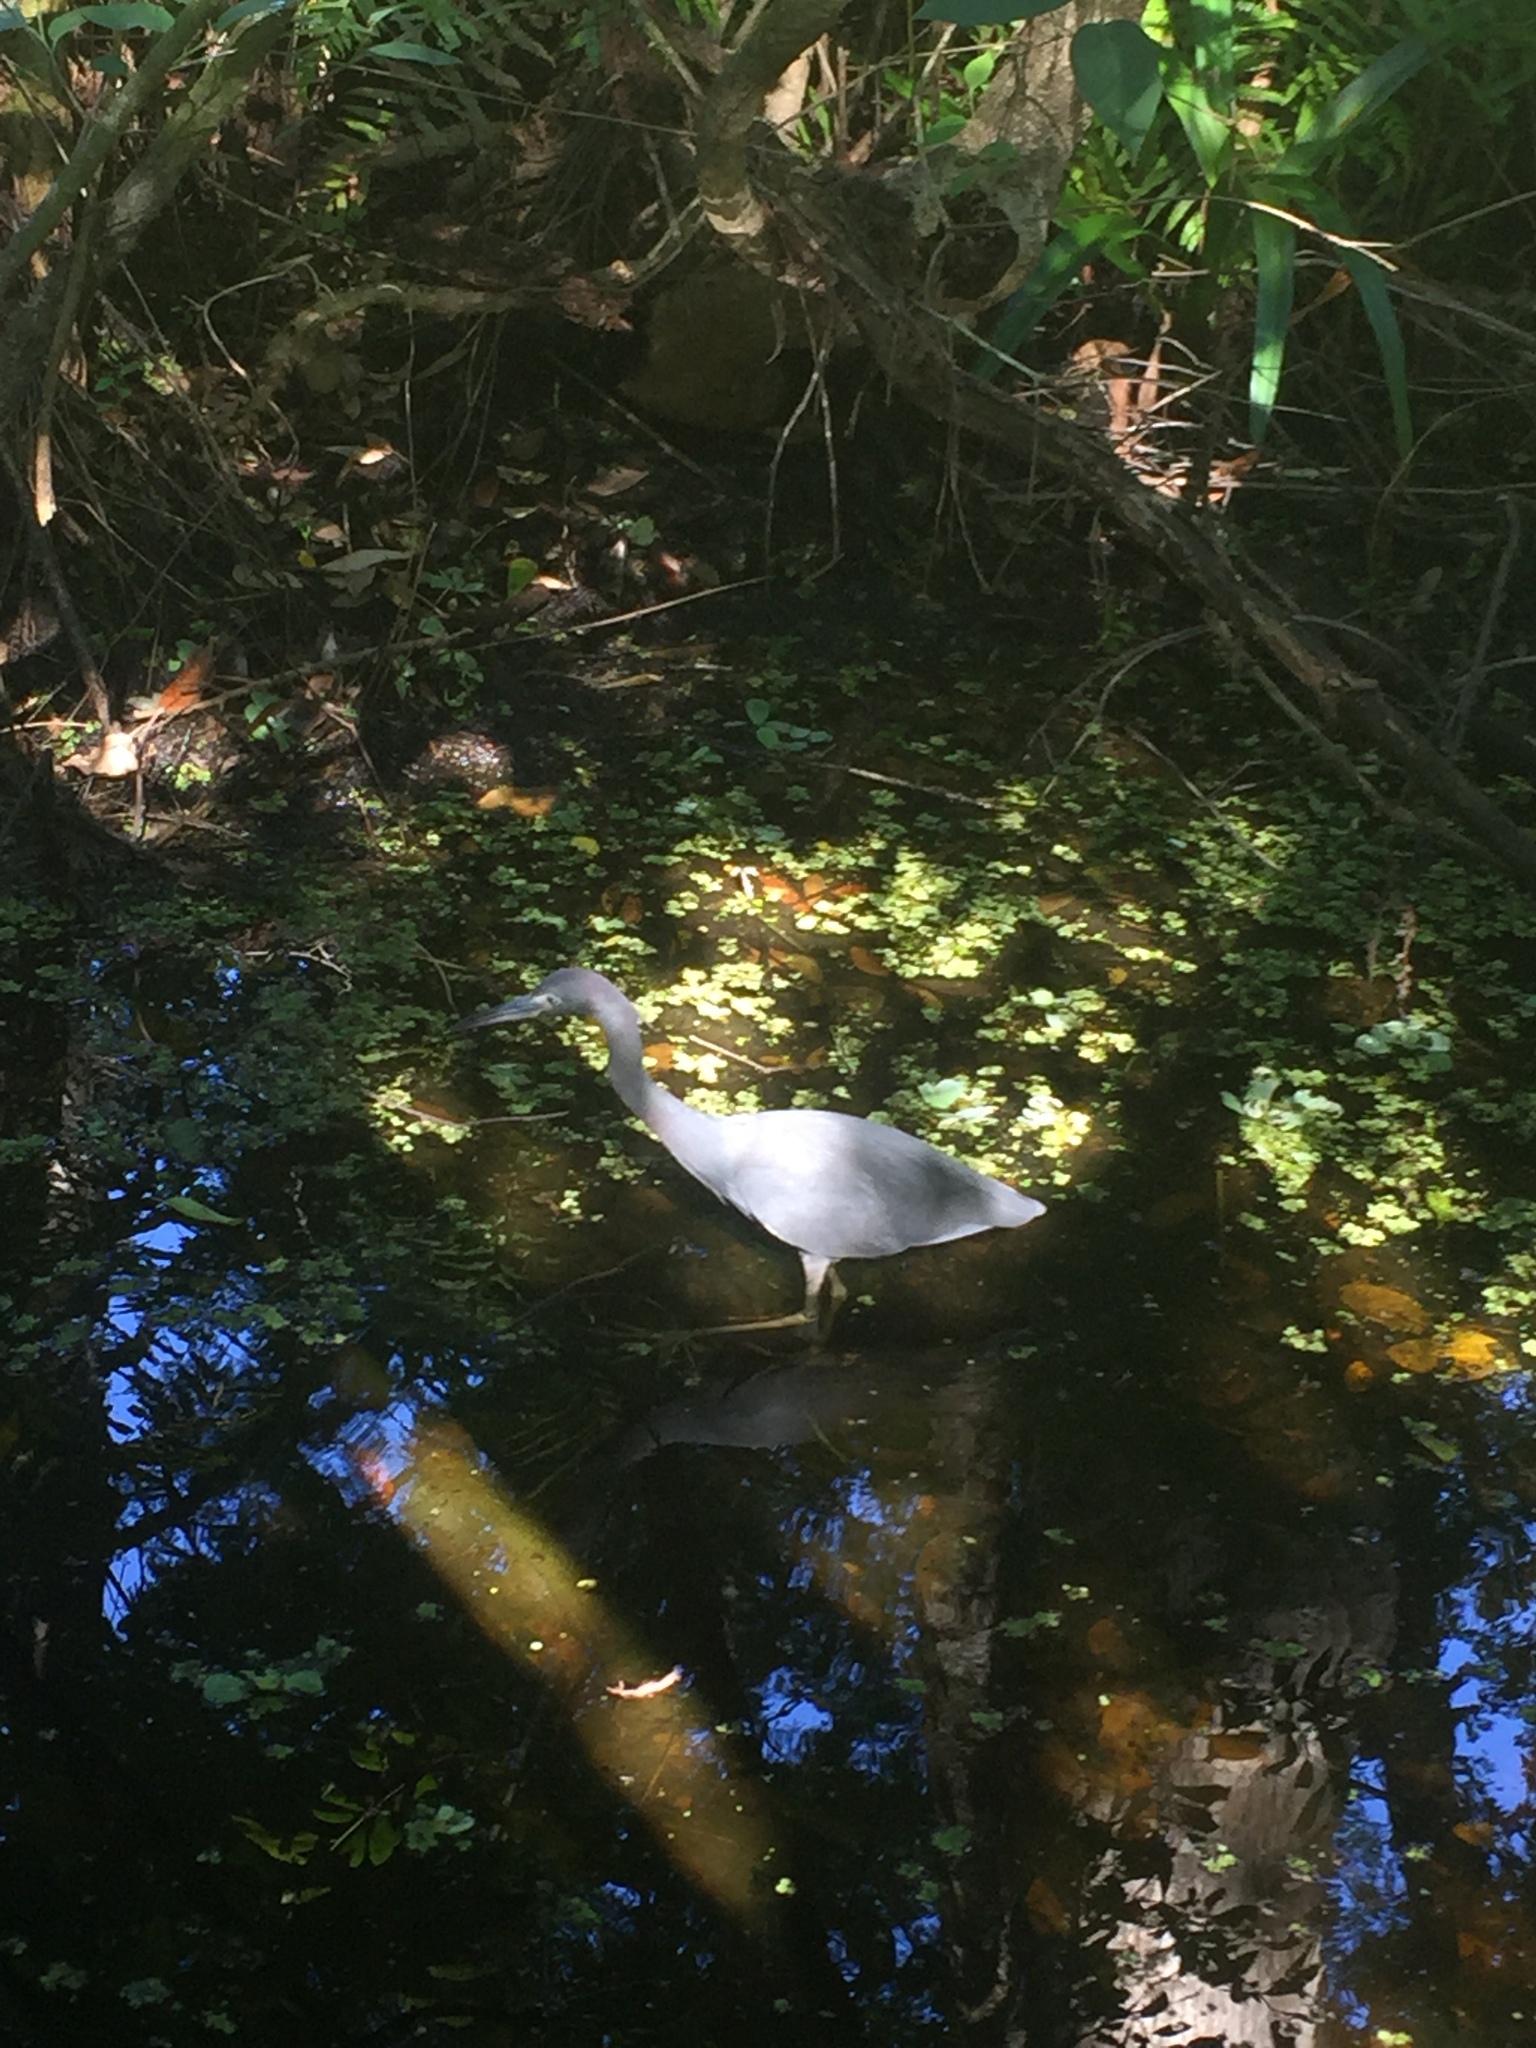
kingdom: Animalia
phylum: Chordata
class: Aves
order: Pelecaniformes
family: Ardeidae
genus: Egretta
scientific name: Egretta caerulea
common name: Little blue heron
